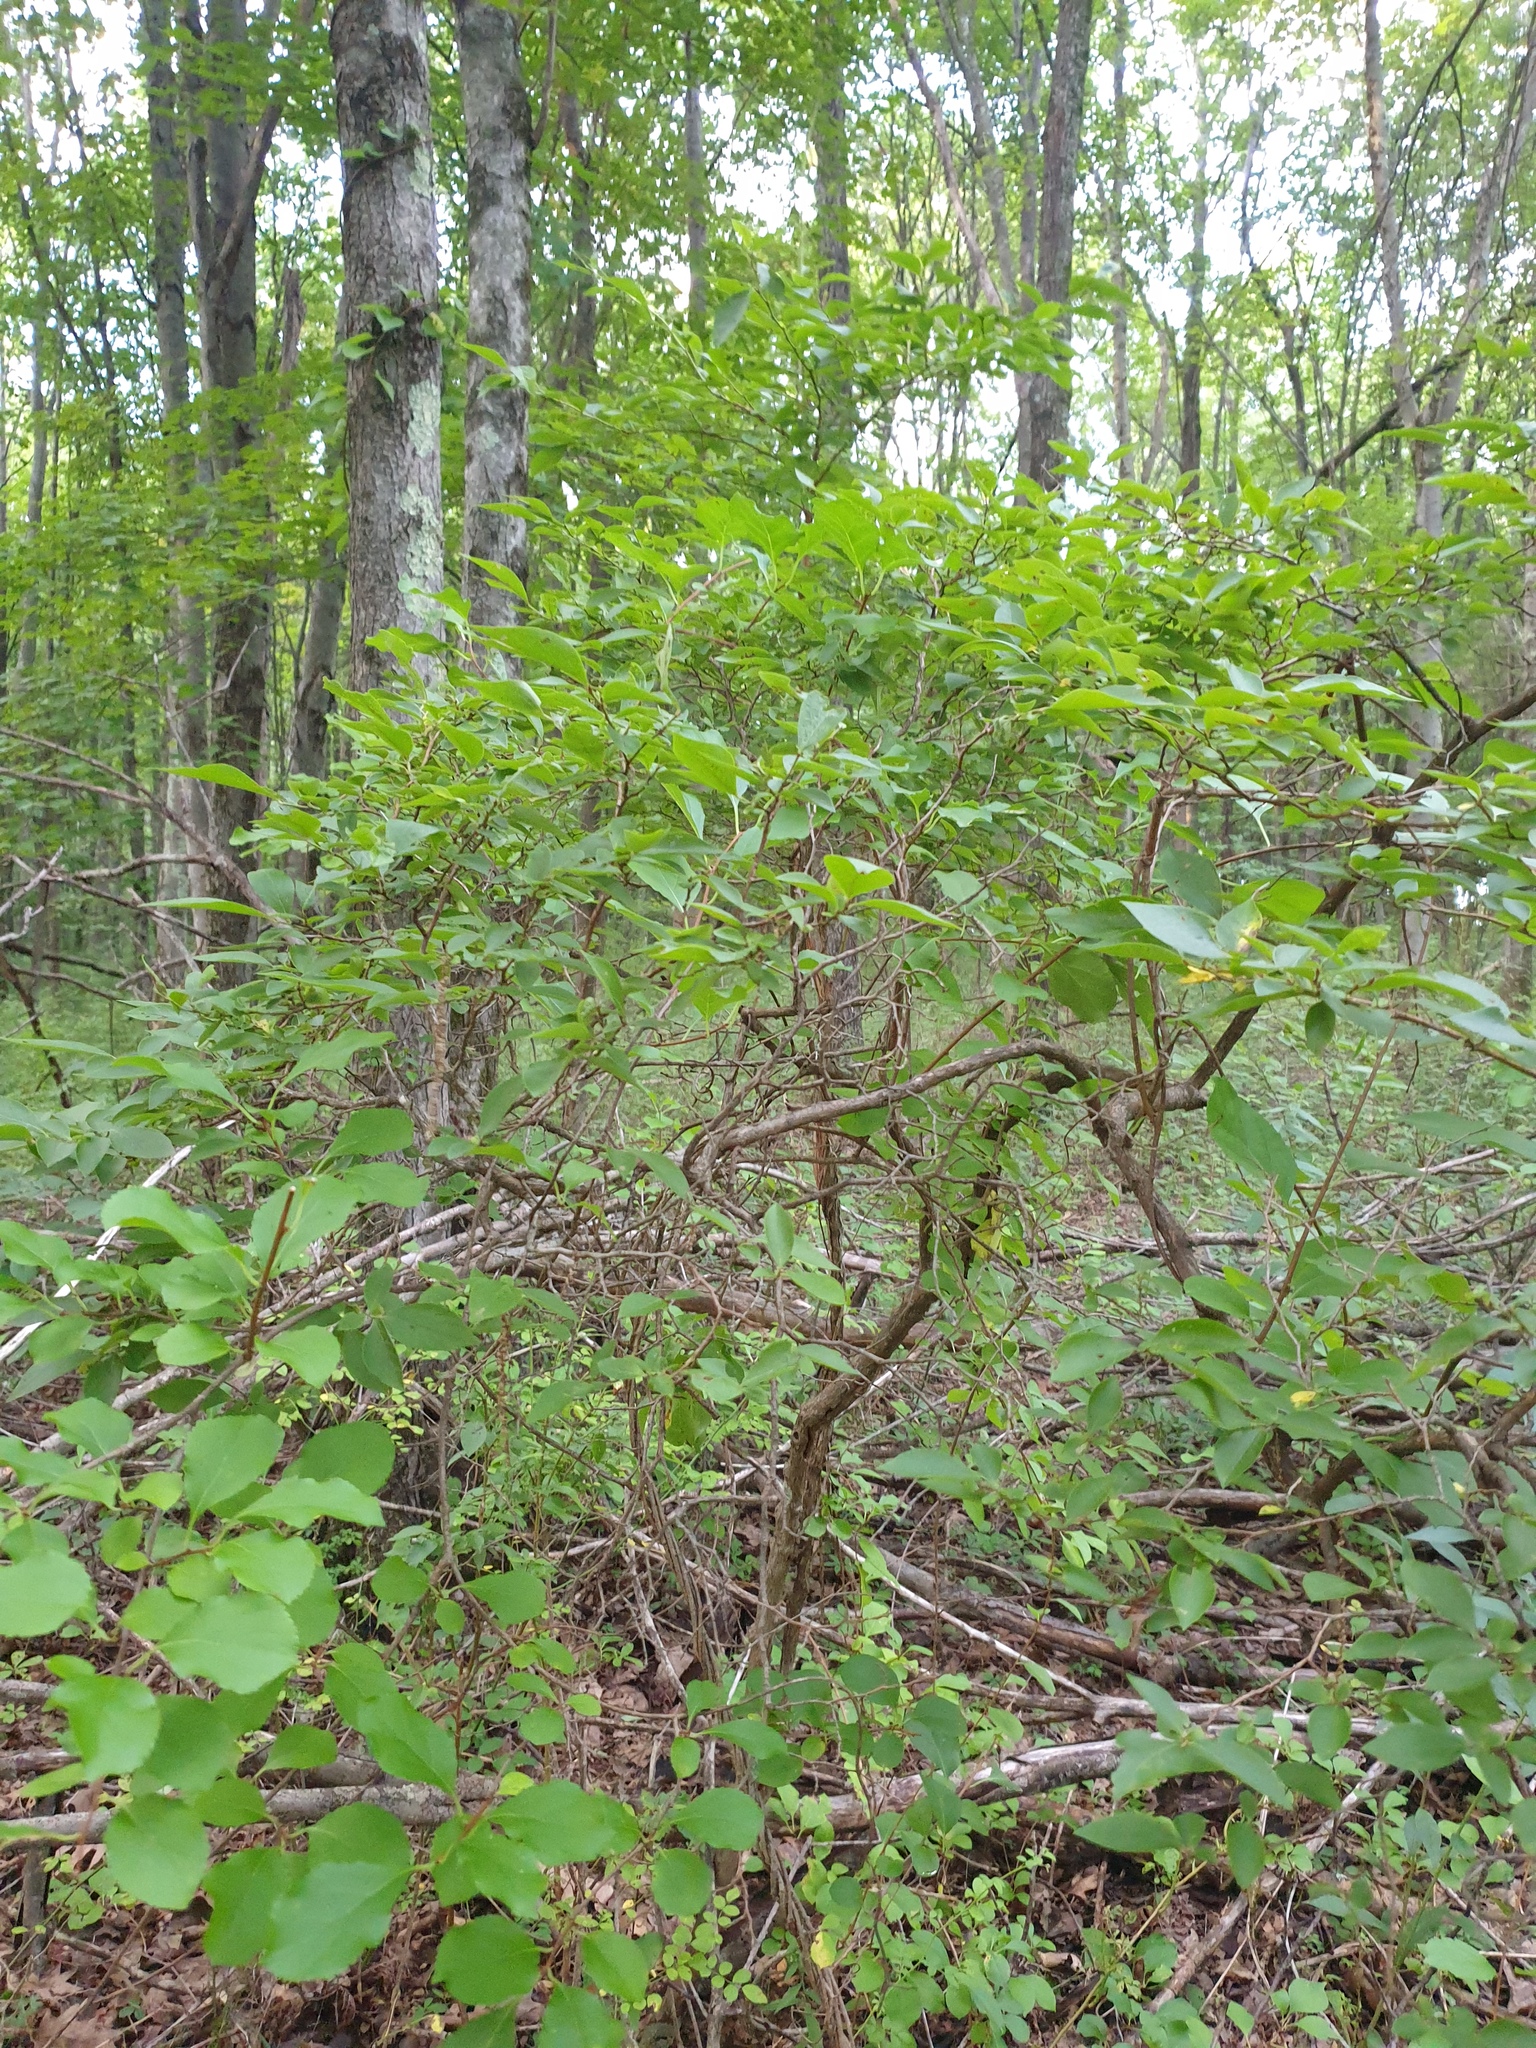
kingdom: Plantae
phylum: Tracheophyta
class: Magnoliopsida
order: Ericales
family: Ericaceae
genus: Vaccinium
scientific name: Vaccinium corymbosum
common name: Blueberry
